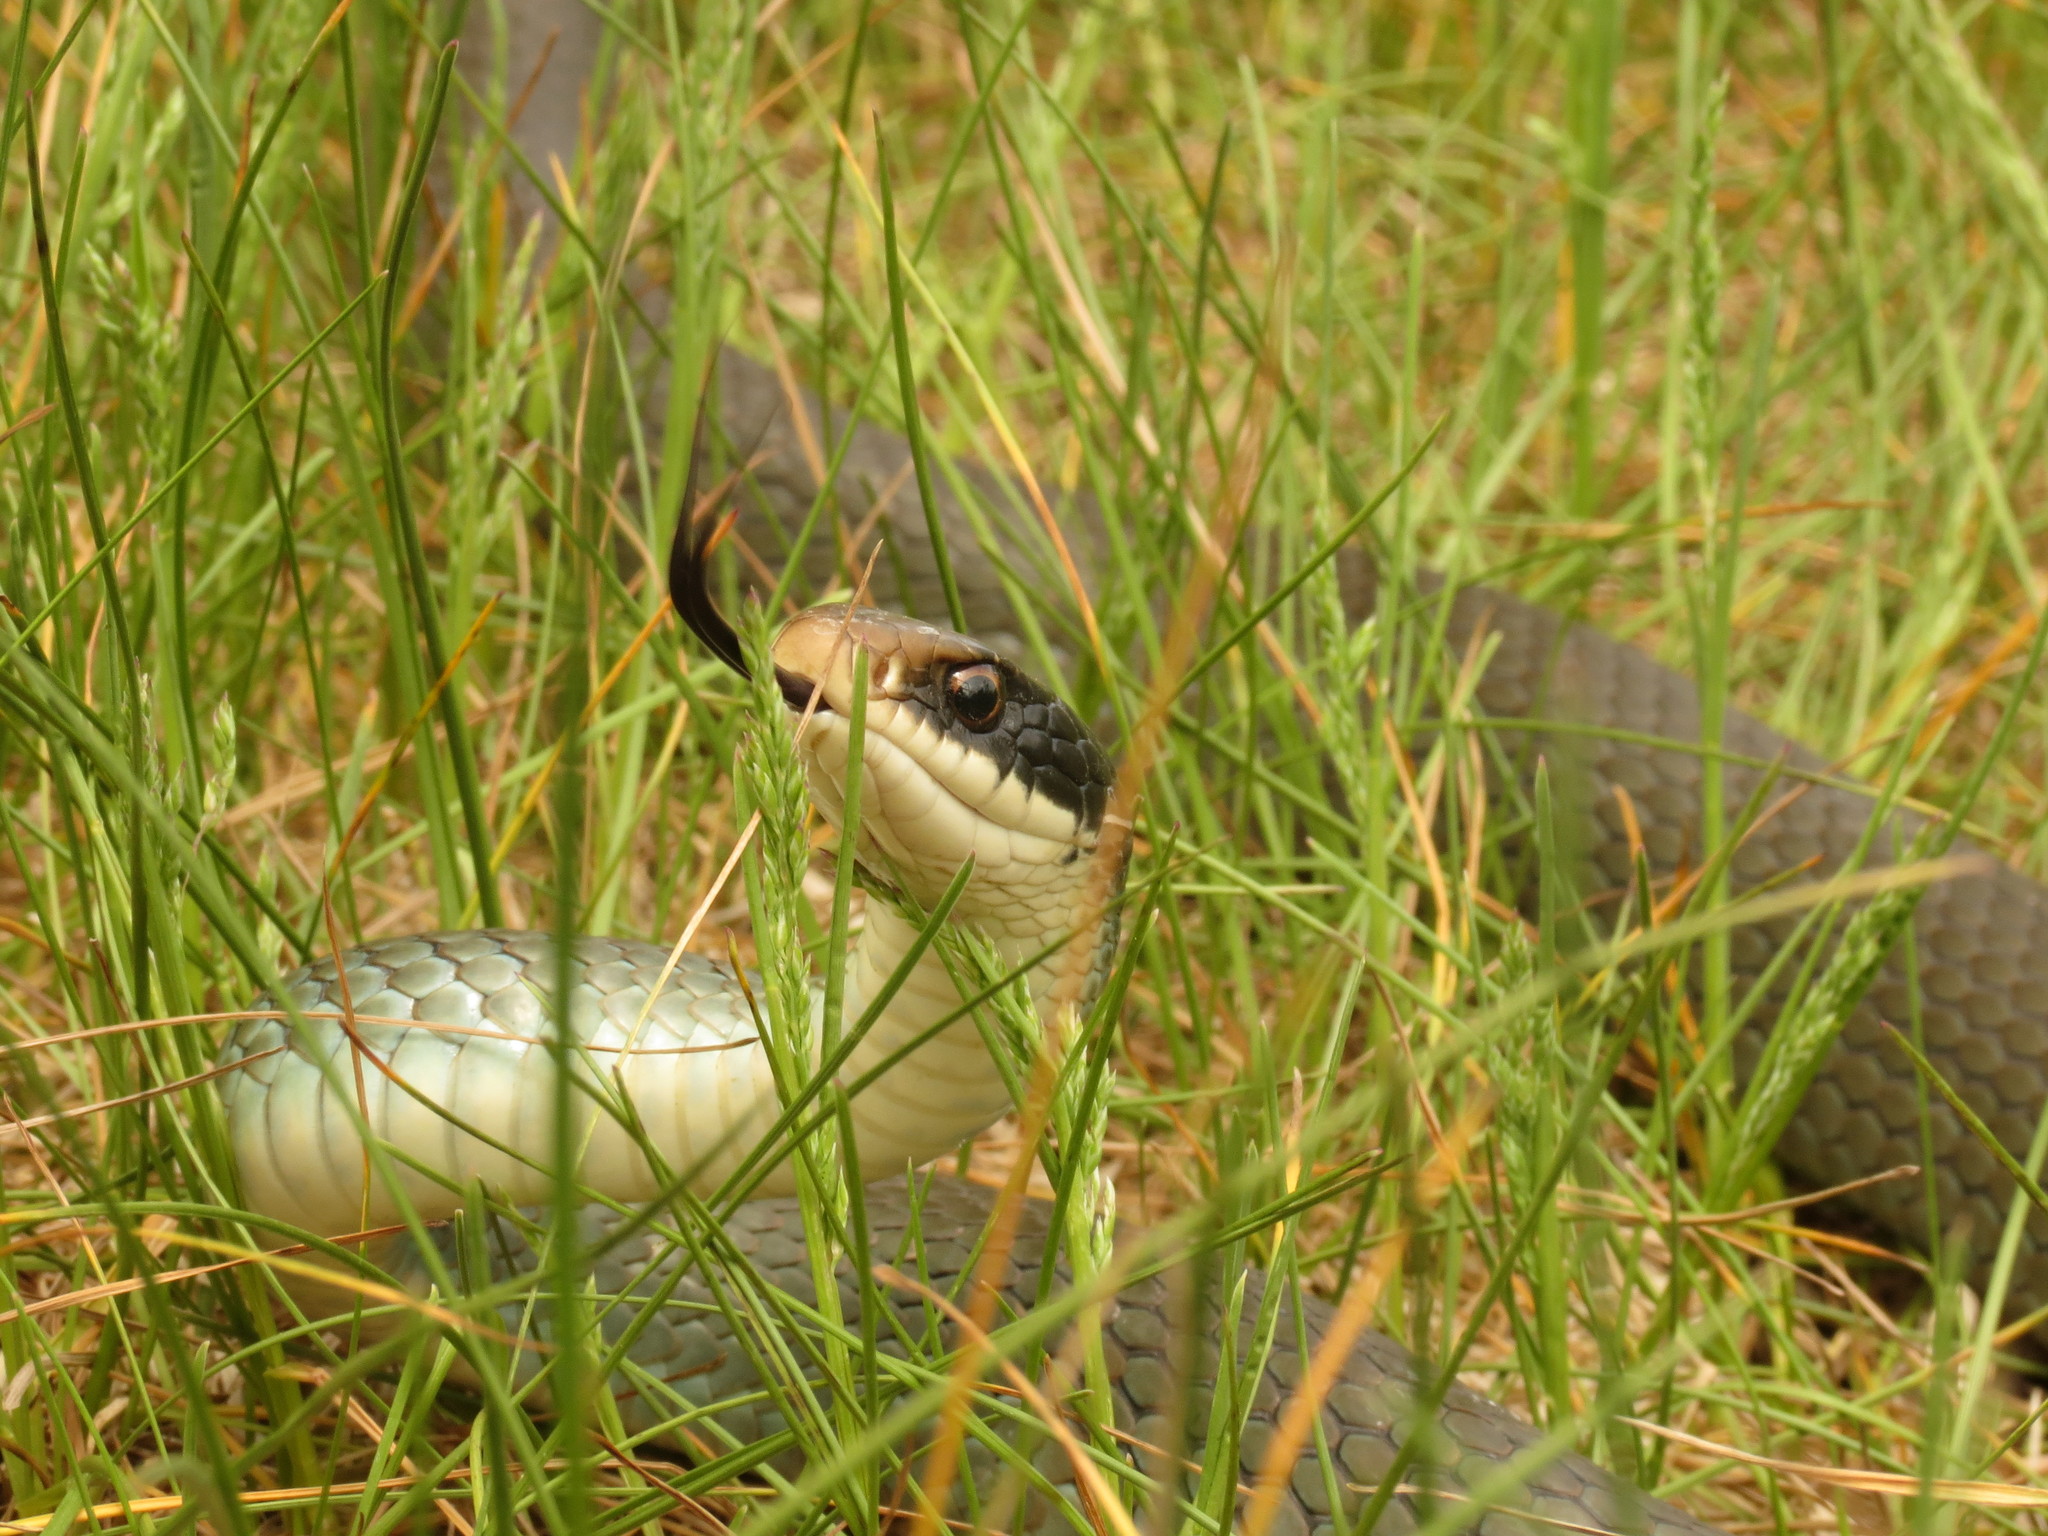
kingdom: Animalia
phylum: Chordata
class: Squamata
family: Colubridae
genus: Coluber
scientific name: Coluber constrictor
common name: Eastern racer
